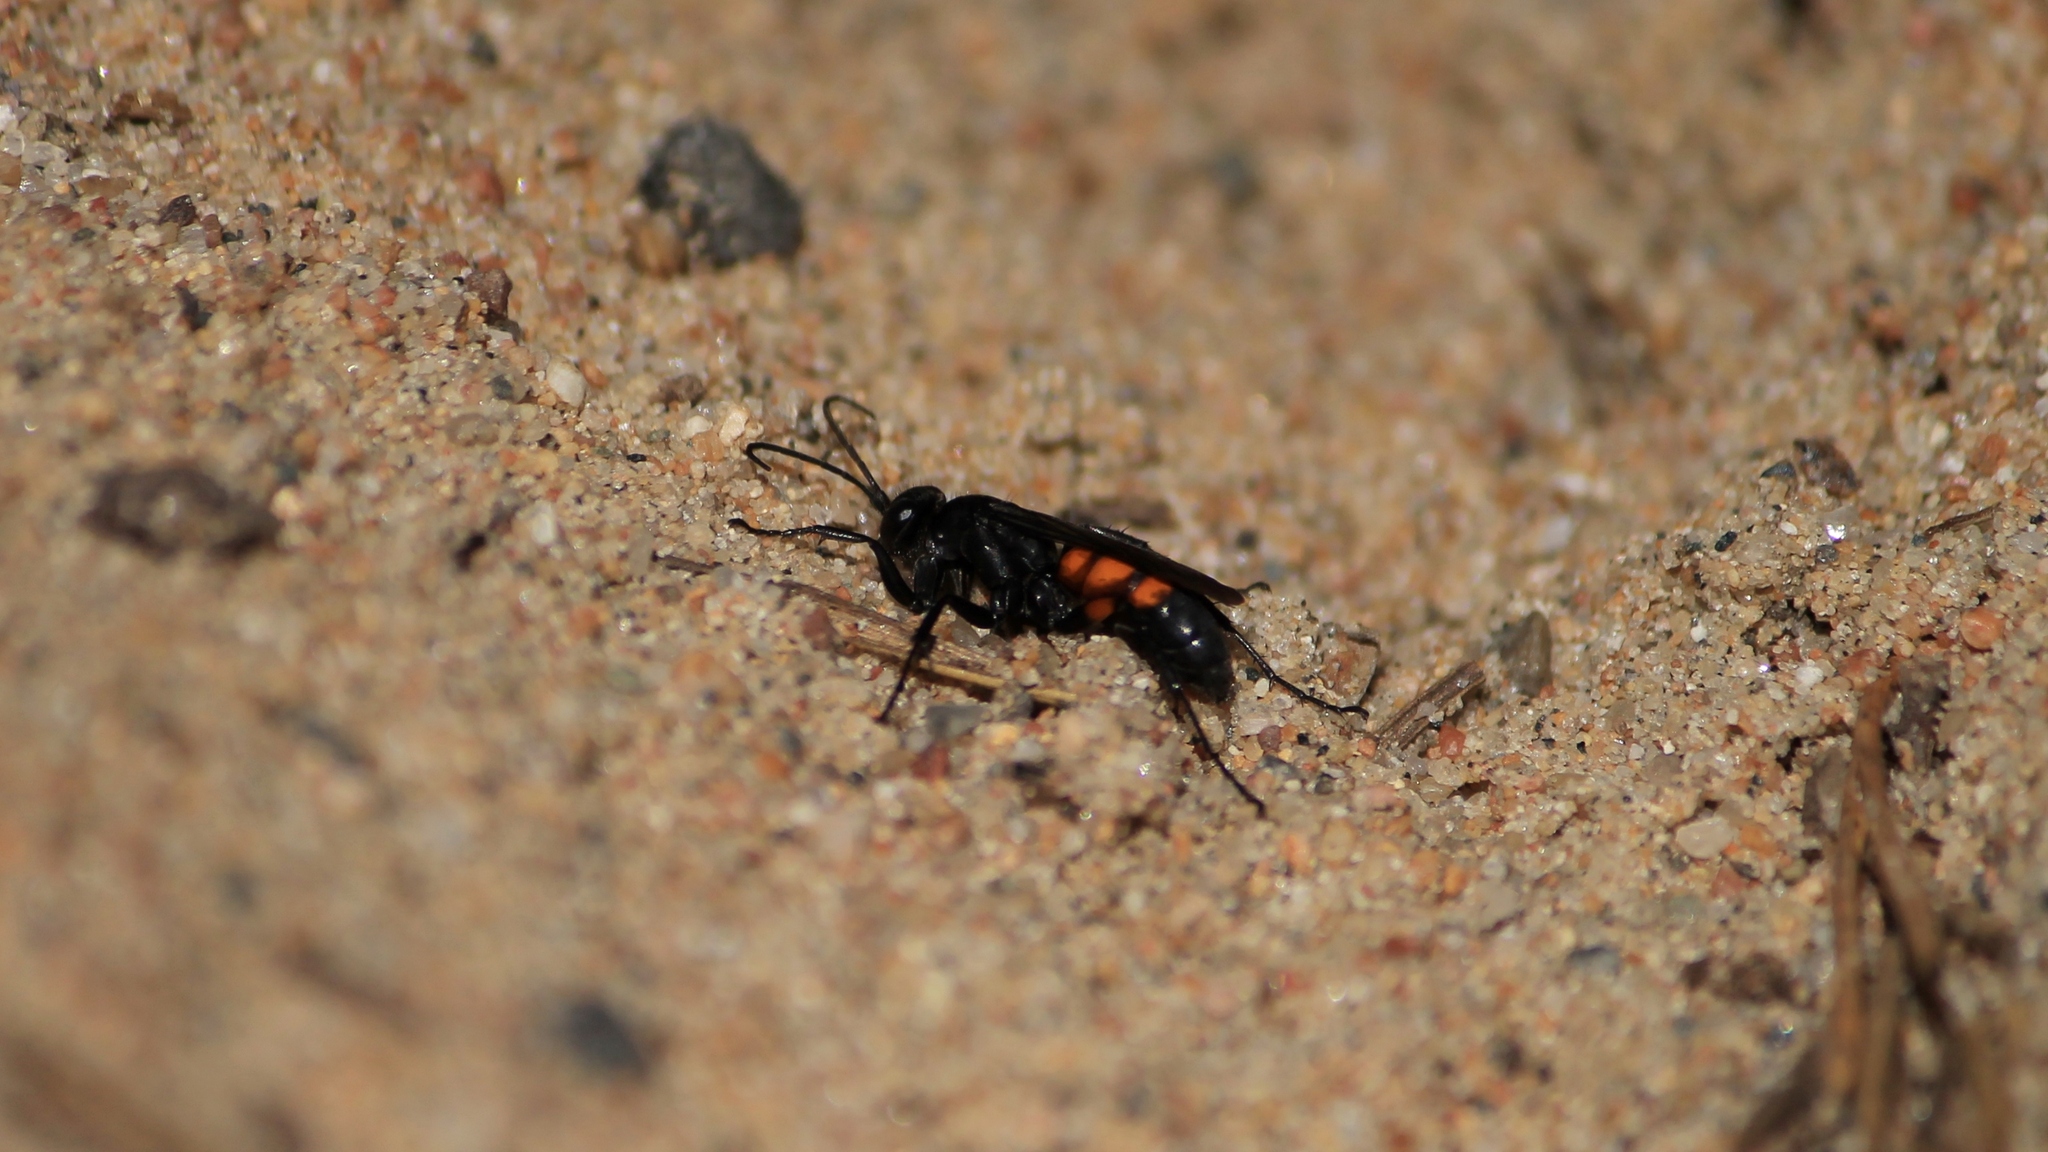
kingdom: Animalia
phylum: Arthropoda
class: Insecta
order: Hymenoptera
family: Pompilidae
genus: Anoplius
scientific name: Anoplius viaticus
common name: Black banded spider wasp
